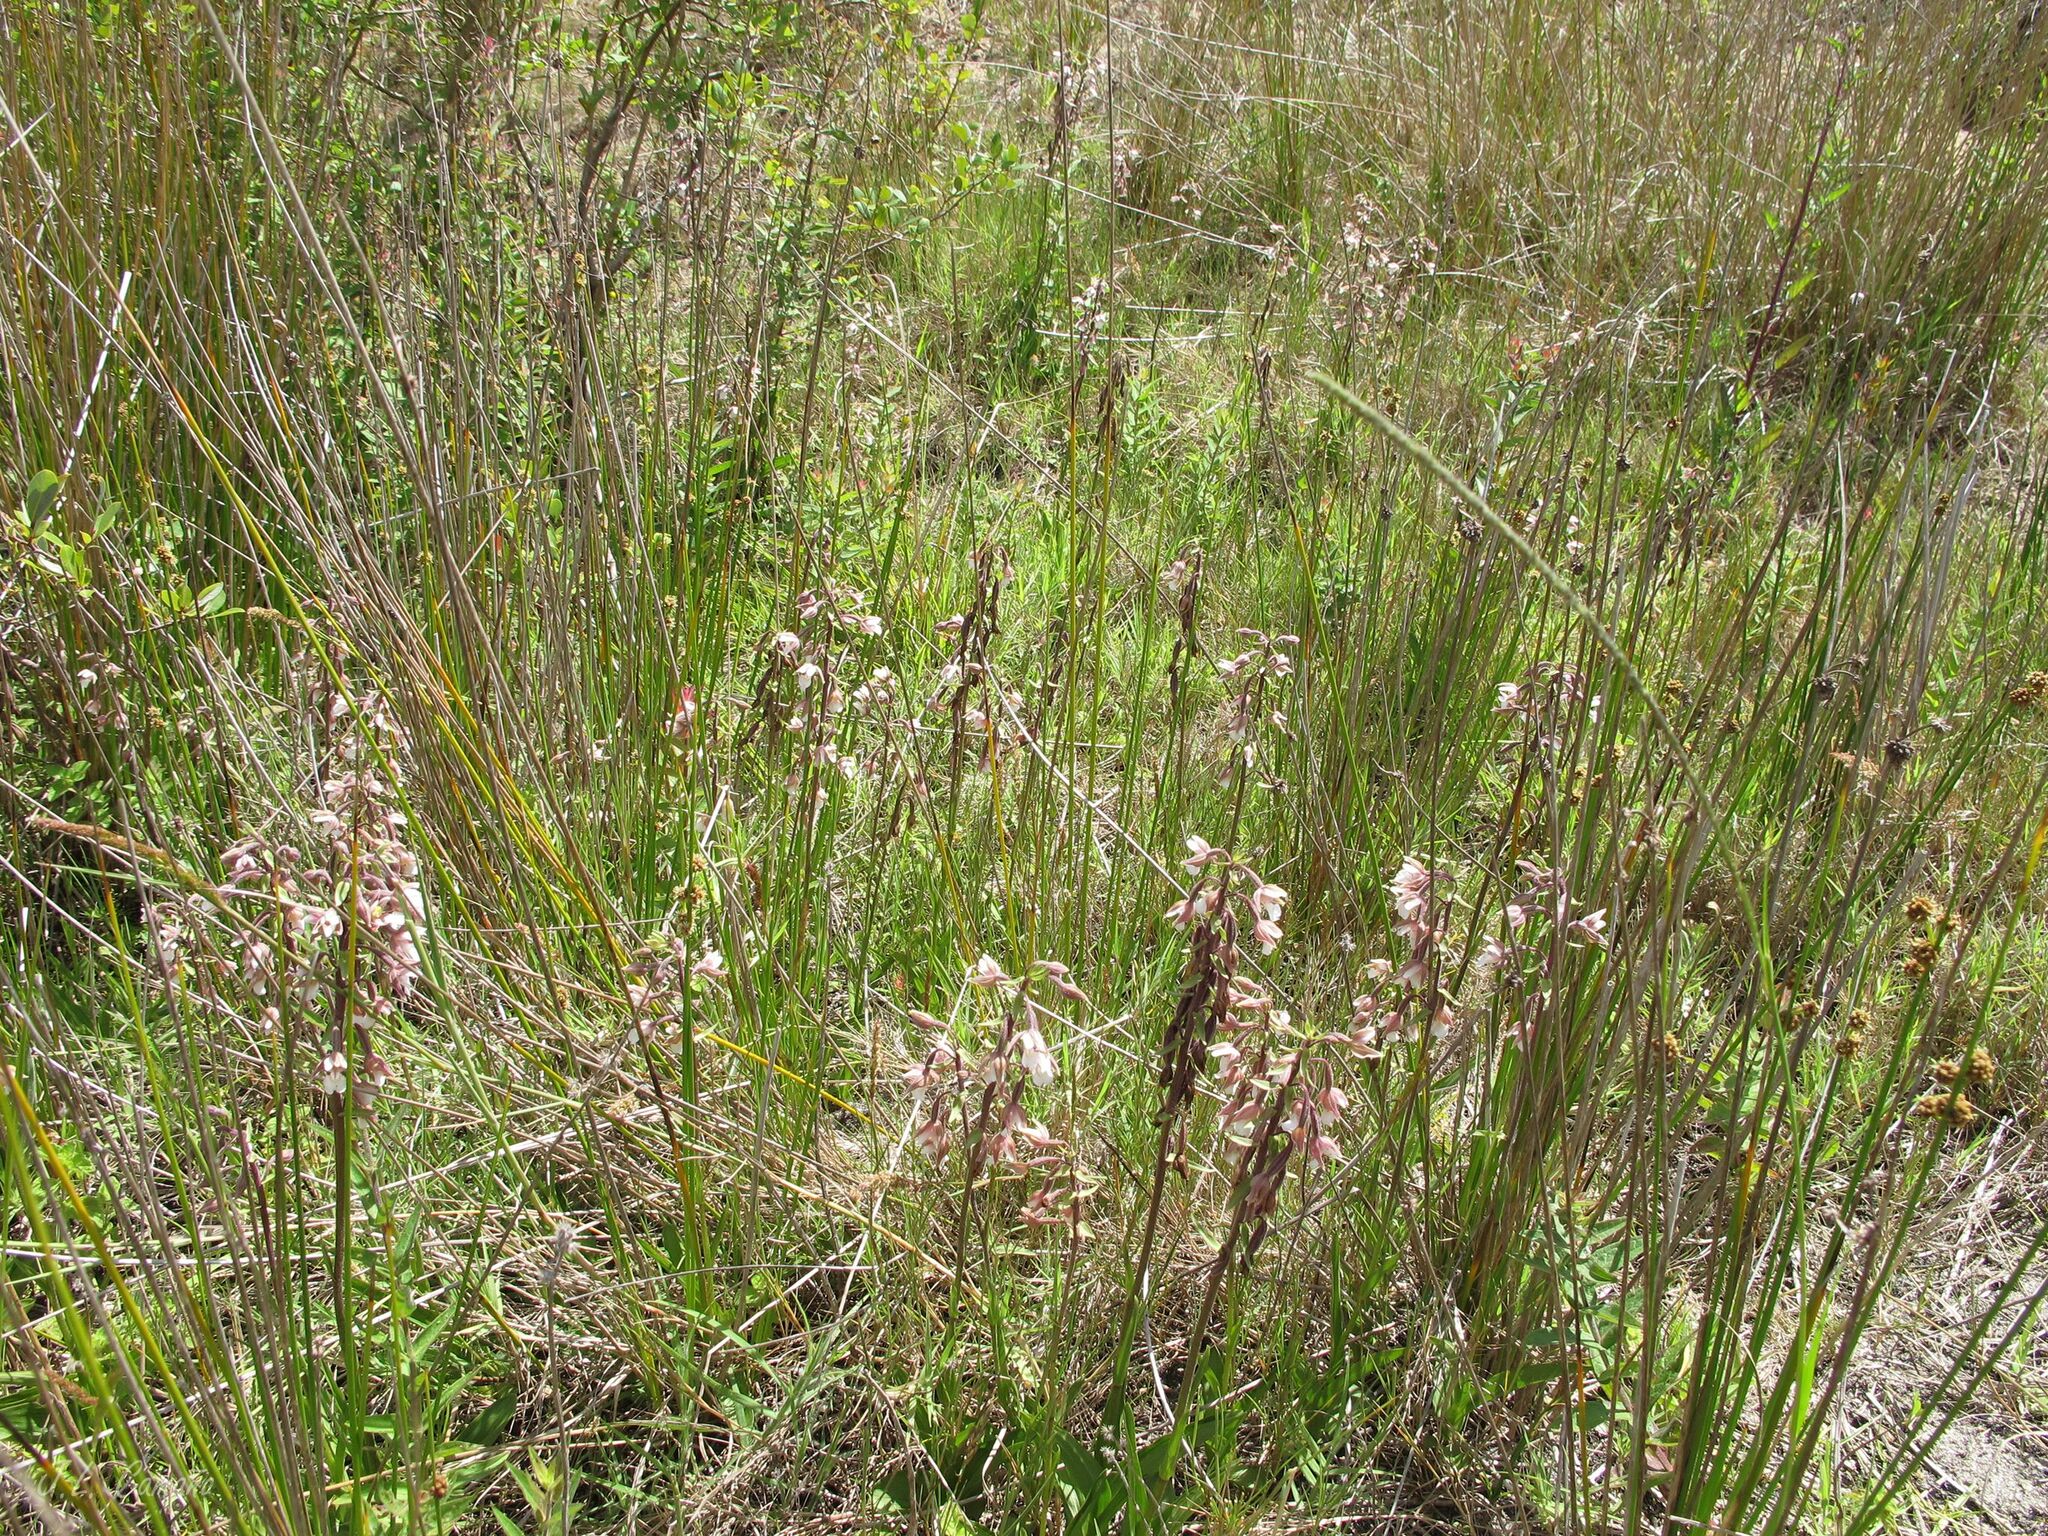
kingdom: Plantae
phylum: Tracheophyta
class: Liliopsida
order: Asparagales
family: Orchidaceae
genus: Epipactis
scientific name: Epipactis palustris
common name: Marsh helleborine
